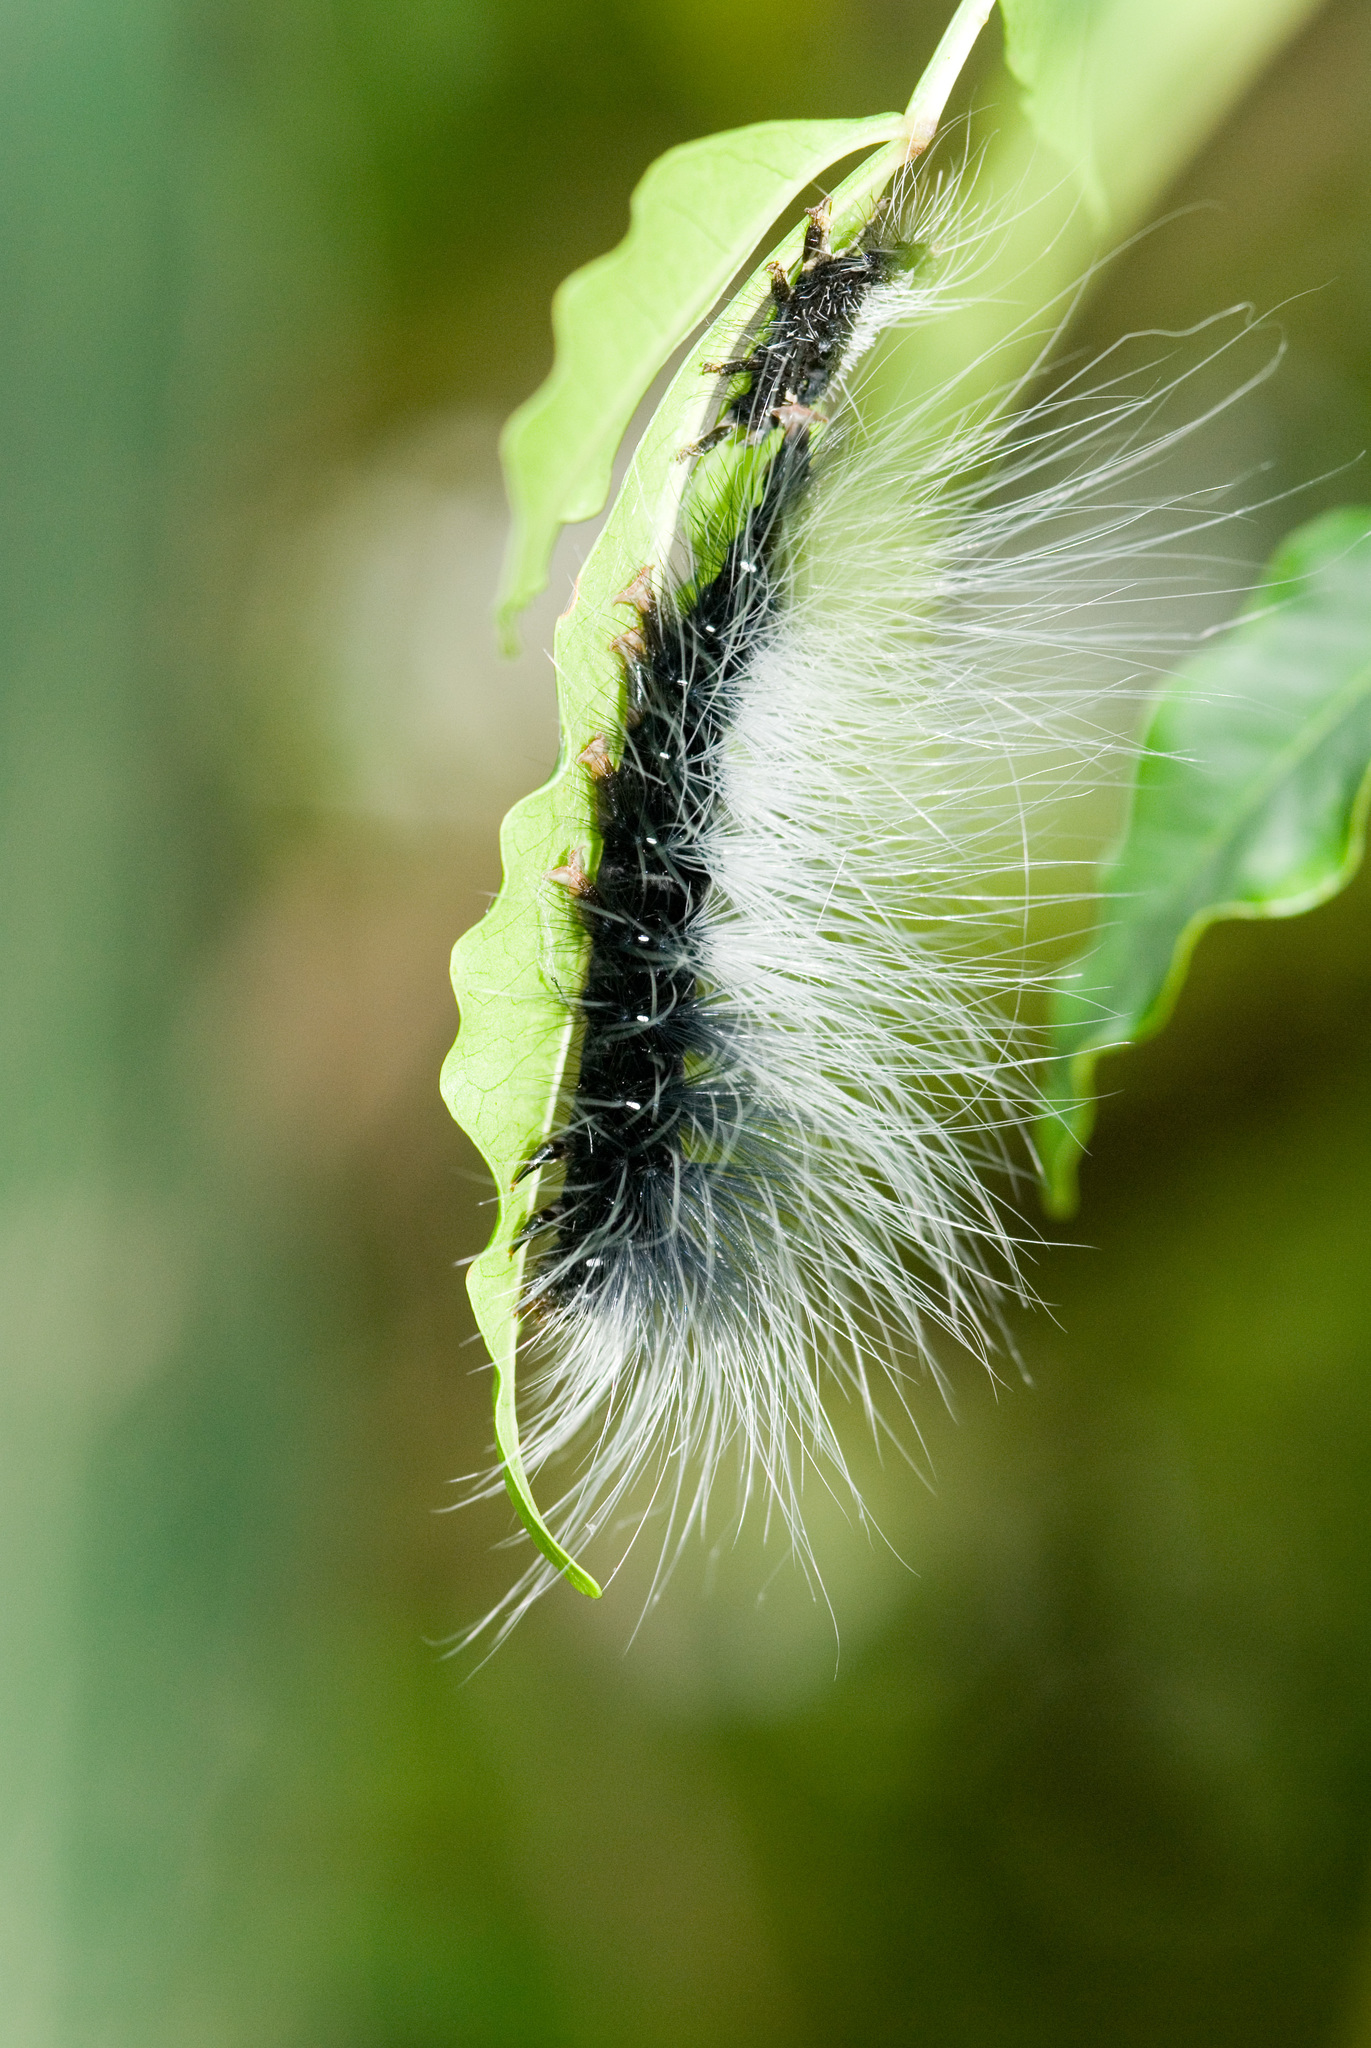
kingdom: Animalia
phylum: Arthropoda
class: Insecta
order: Lepidoptera
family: Erebidae
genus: Macrobrochis
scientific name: Macrobrochis gigas
